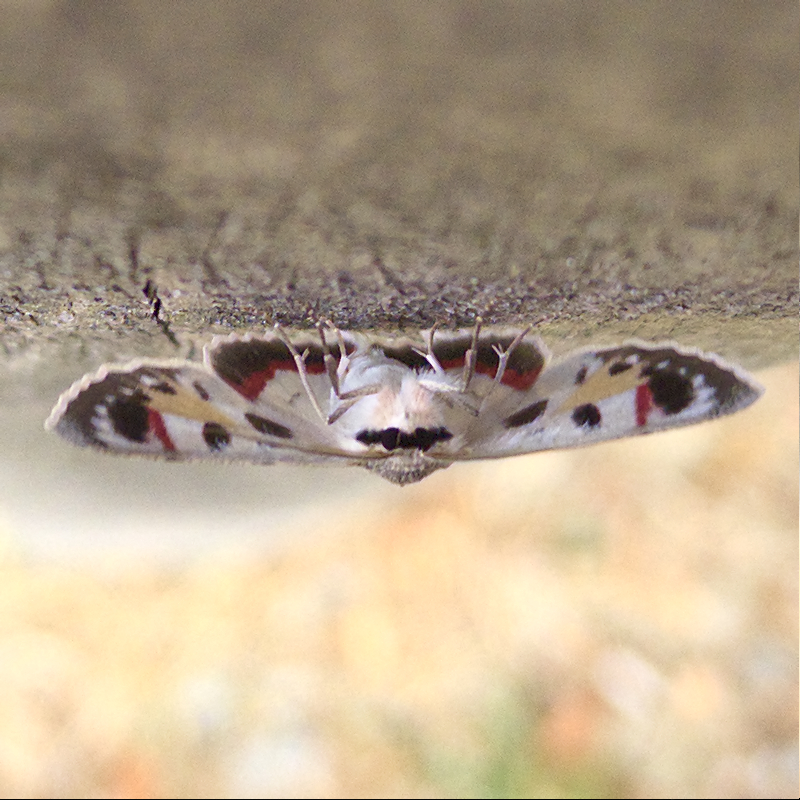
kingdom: Animalia
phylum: Arthropoda
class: Insecta
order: Lepidoptera
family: Geometridae
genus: Crypsiphona
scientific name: Crypsiphona ocultaria
